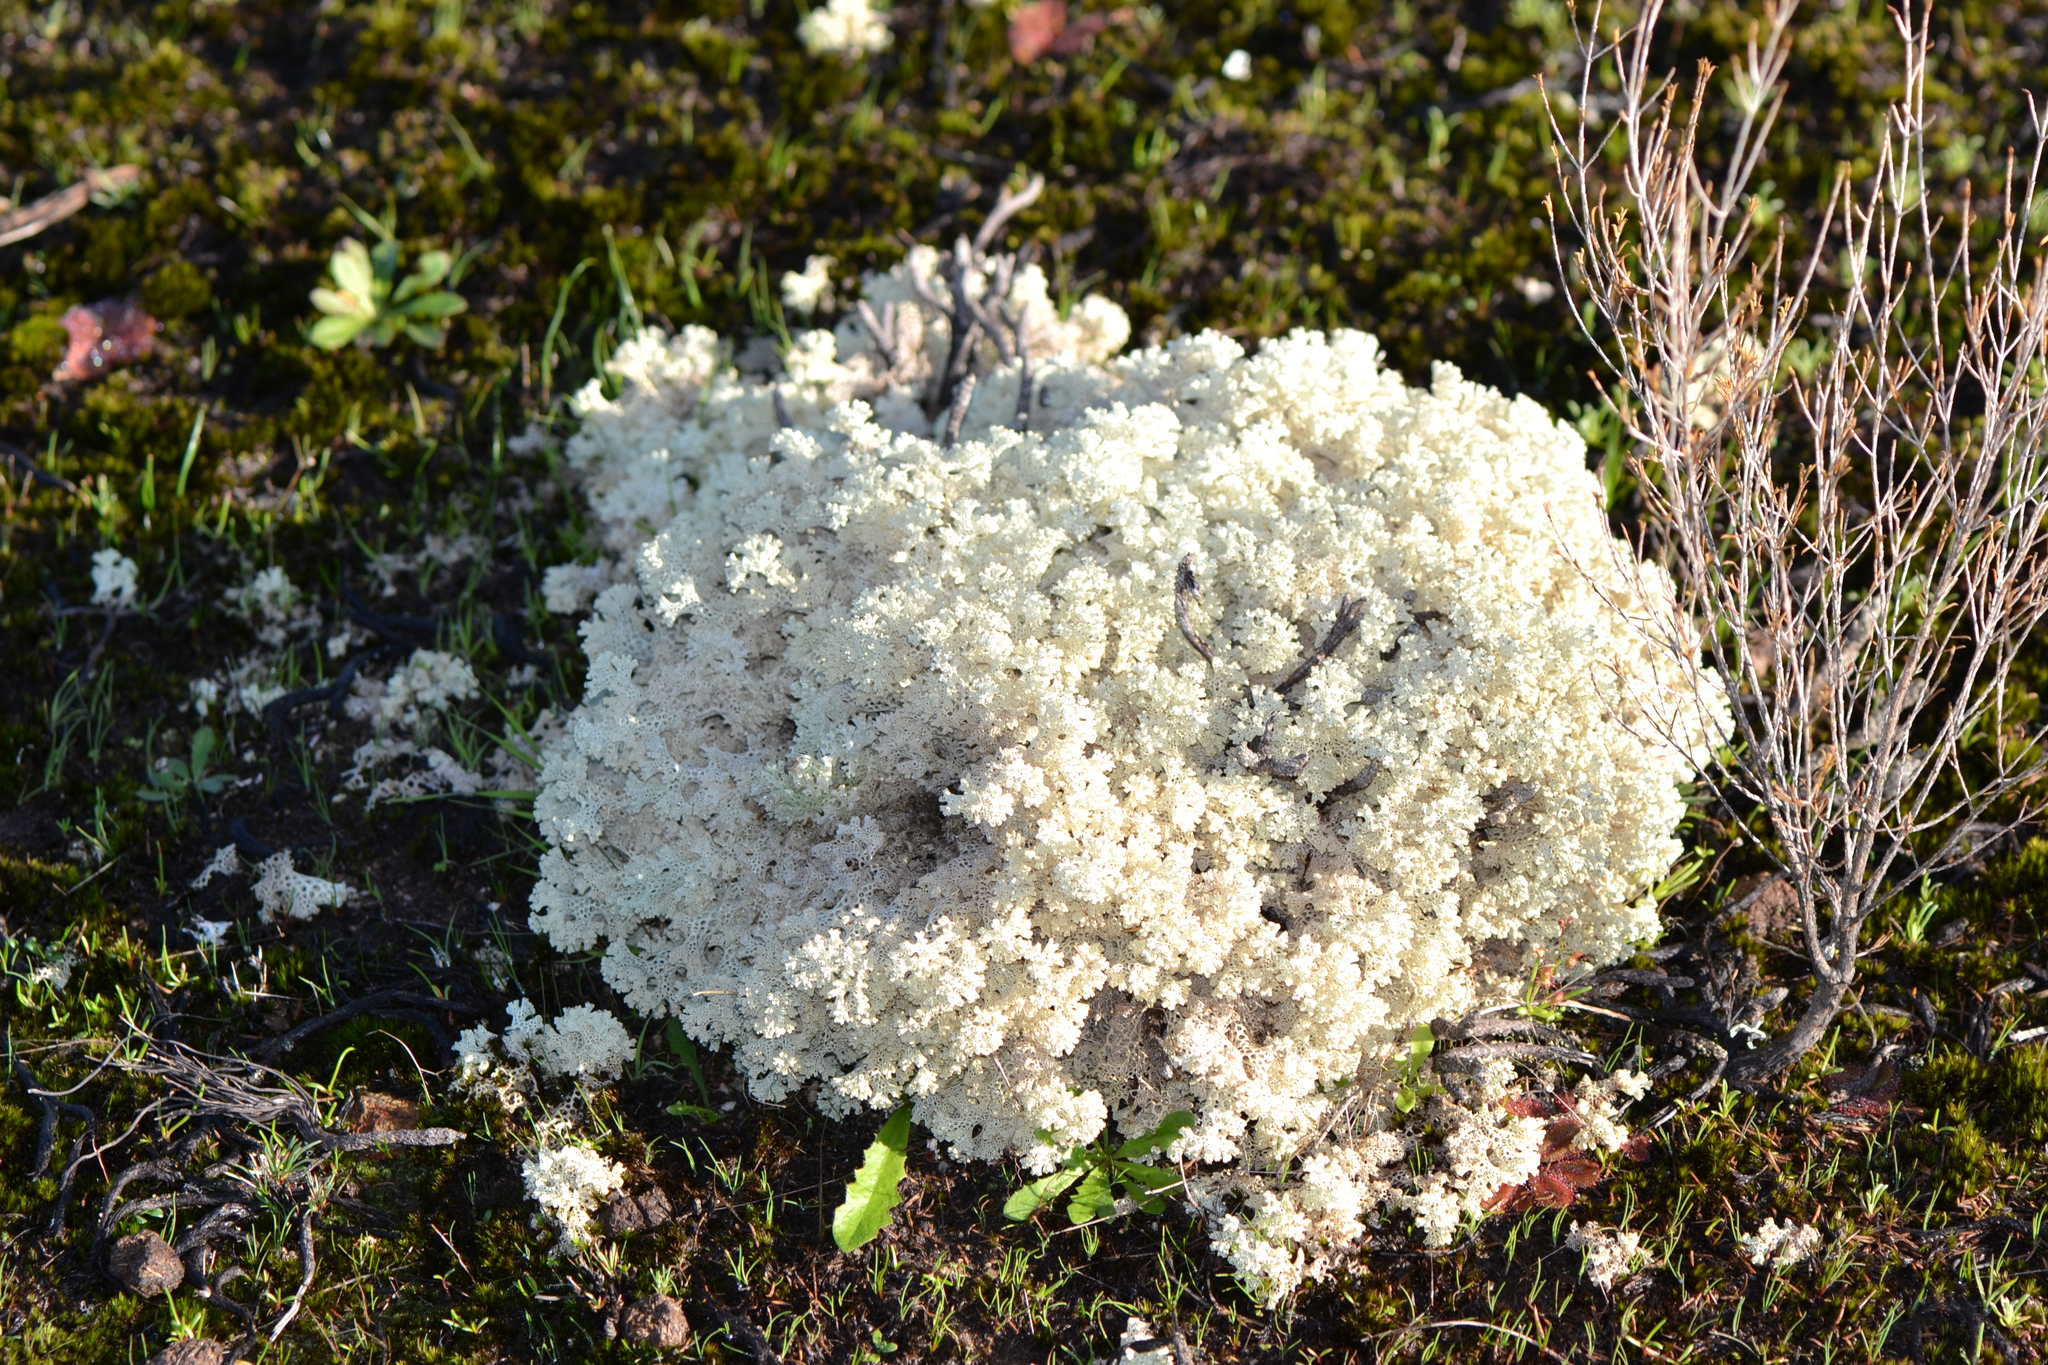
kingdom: Fungi
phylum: Ascomycota
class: Lecanoromycetes
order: Lecanorales
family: Cladoniaceae
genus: Pulchrocladia
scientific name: Pulchrocladia ferdinandii
